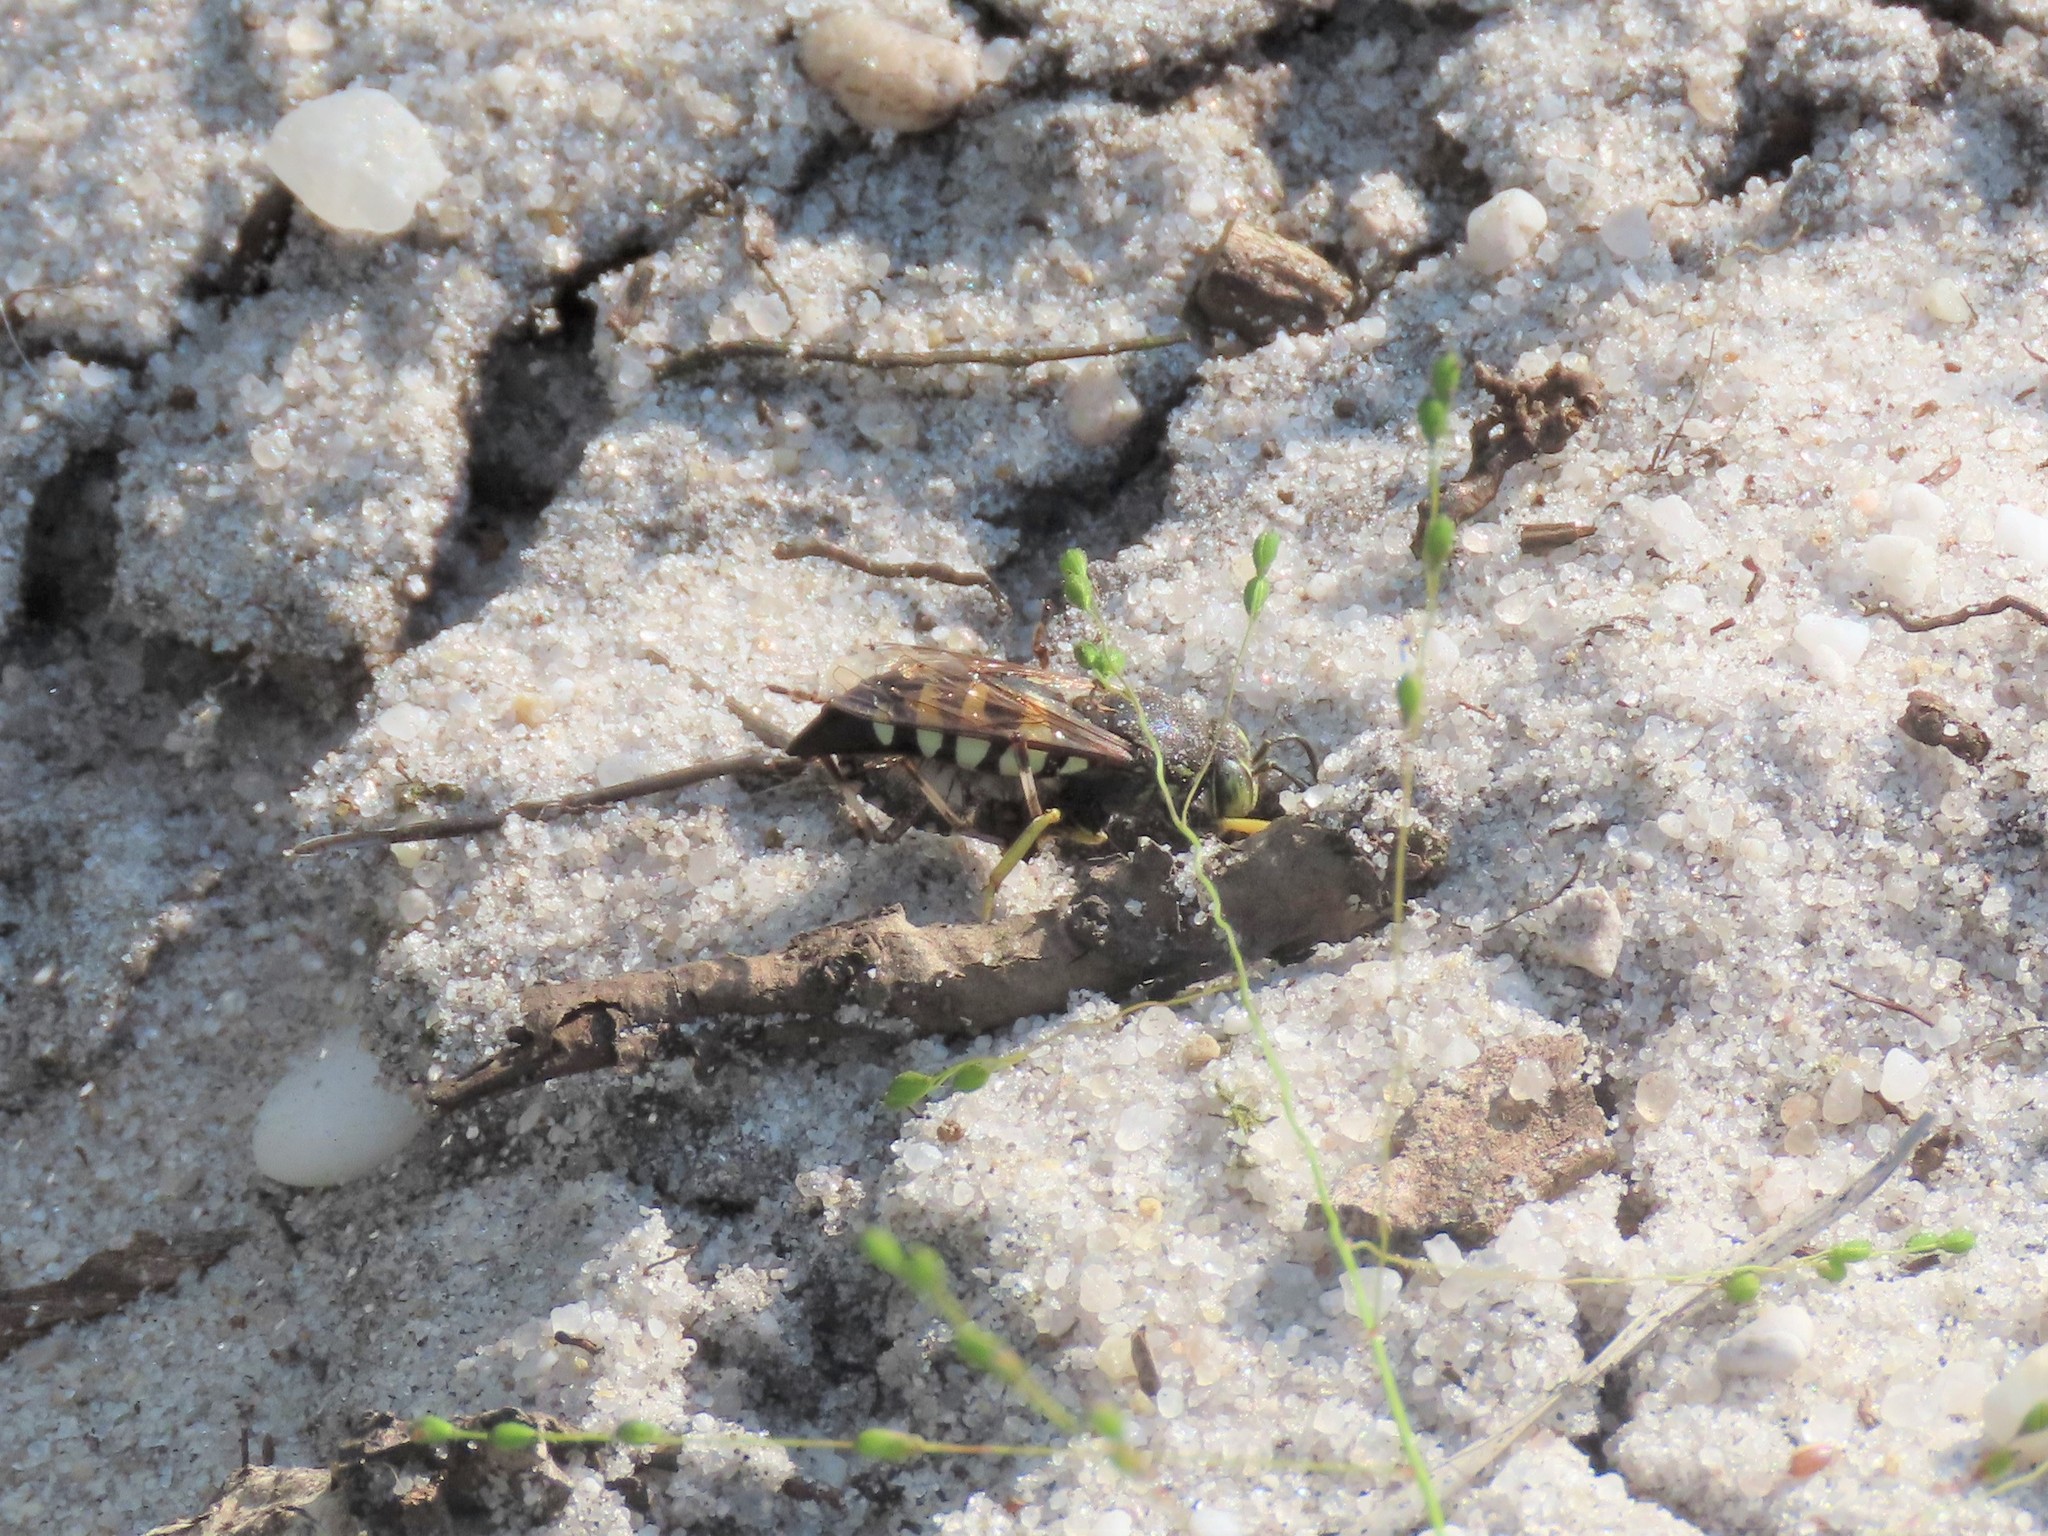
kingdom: Animalia
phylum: Arthropoda
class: Insecta
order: Hemiptera
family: Pentatomidae
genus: Halyomorpha
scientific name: Halyomorpha halys
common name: Brown marmorated stink bug
